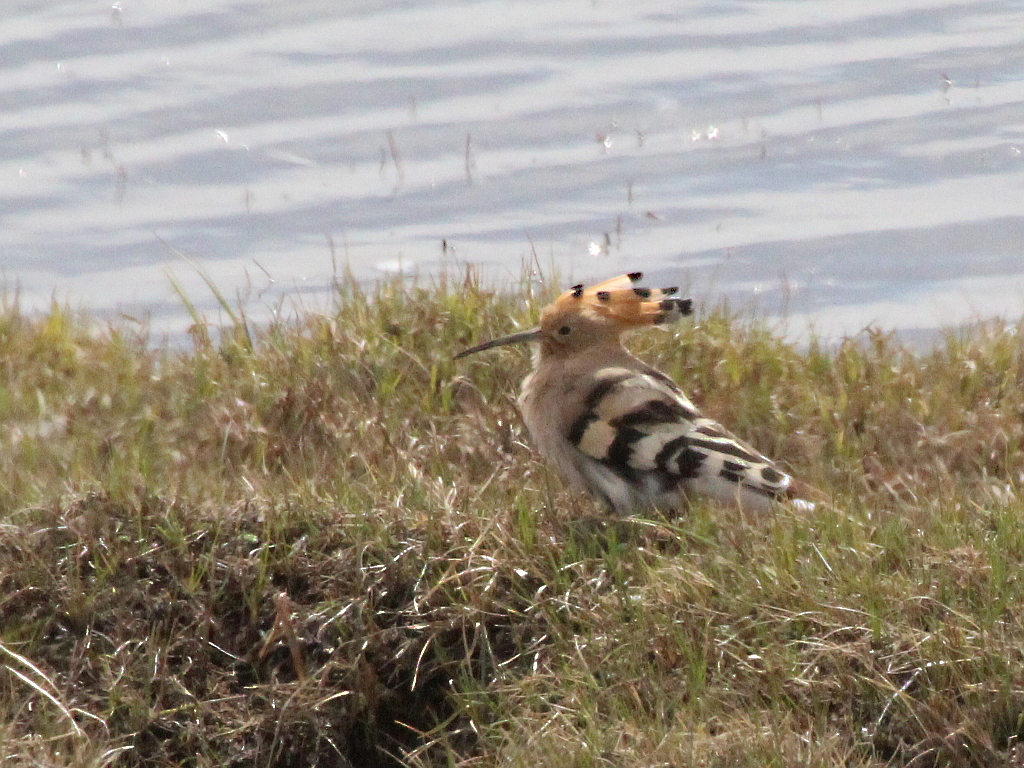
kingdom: Animalia
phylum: Chordata
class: Aves
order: Bucerotiformes
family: Upupidae
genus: Upupa
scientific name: Upupa epops
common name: Eurasian hoopoe
